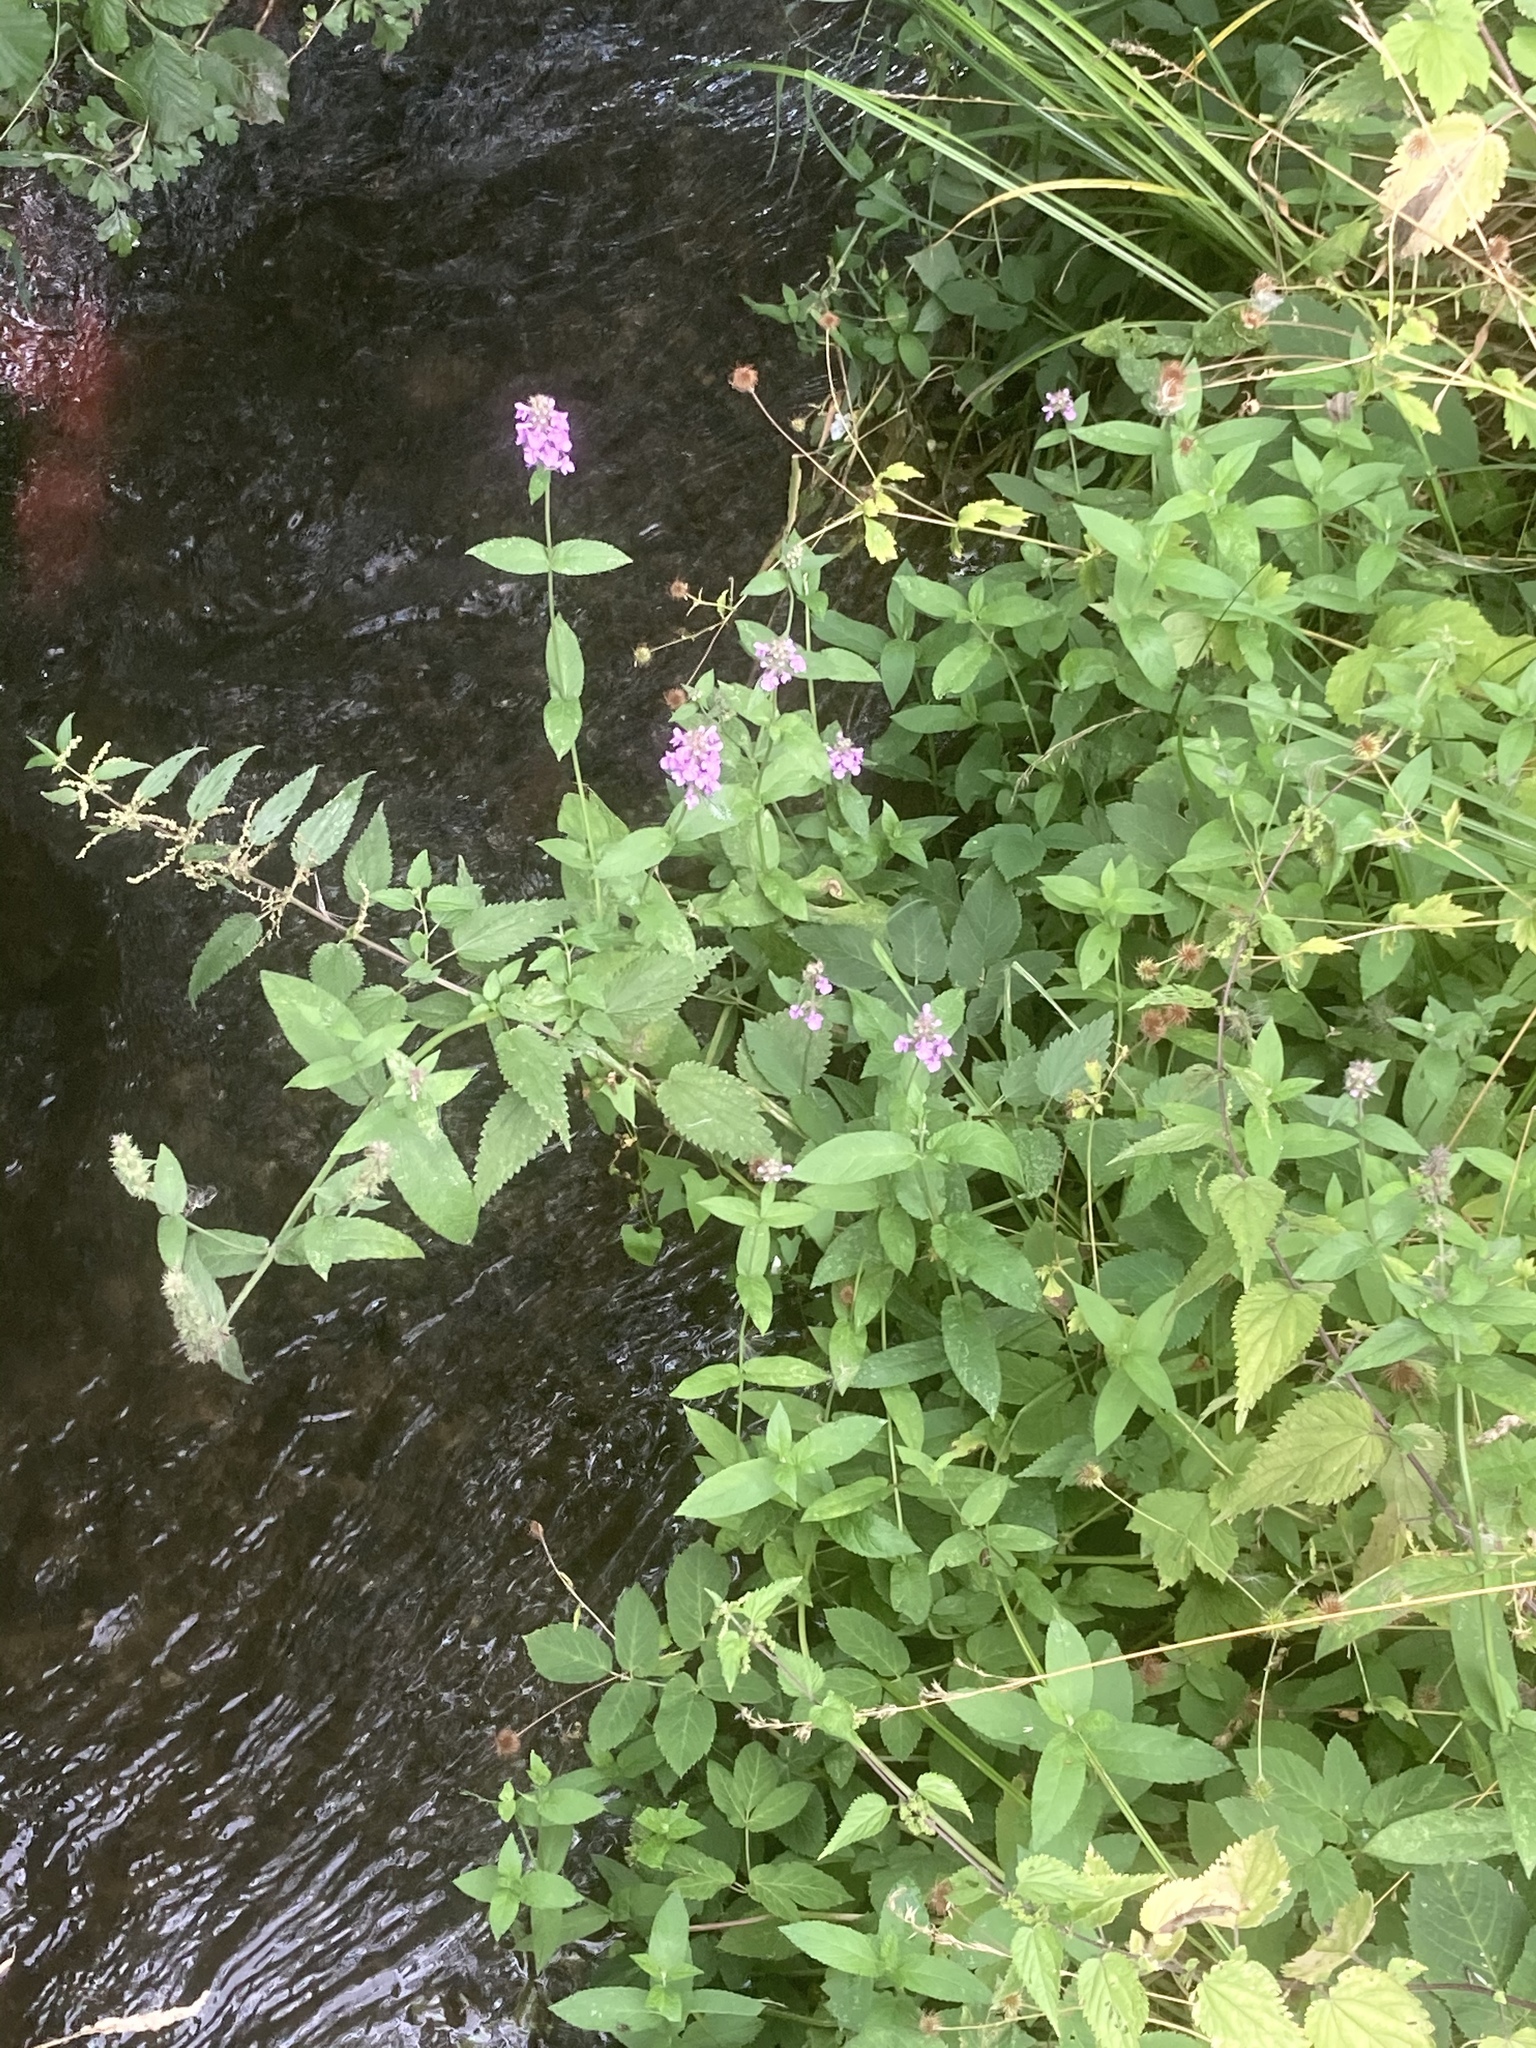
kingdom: Plantae
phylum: Tracheophyta
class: Magnoliopsida
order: Lamiales
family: Lamiaceae
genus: Stachys
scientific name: Stachys palustris
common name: Marsh woundwort
